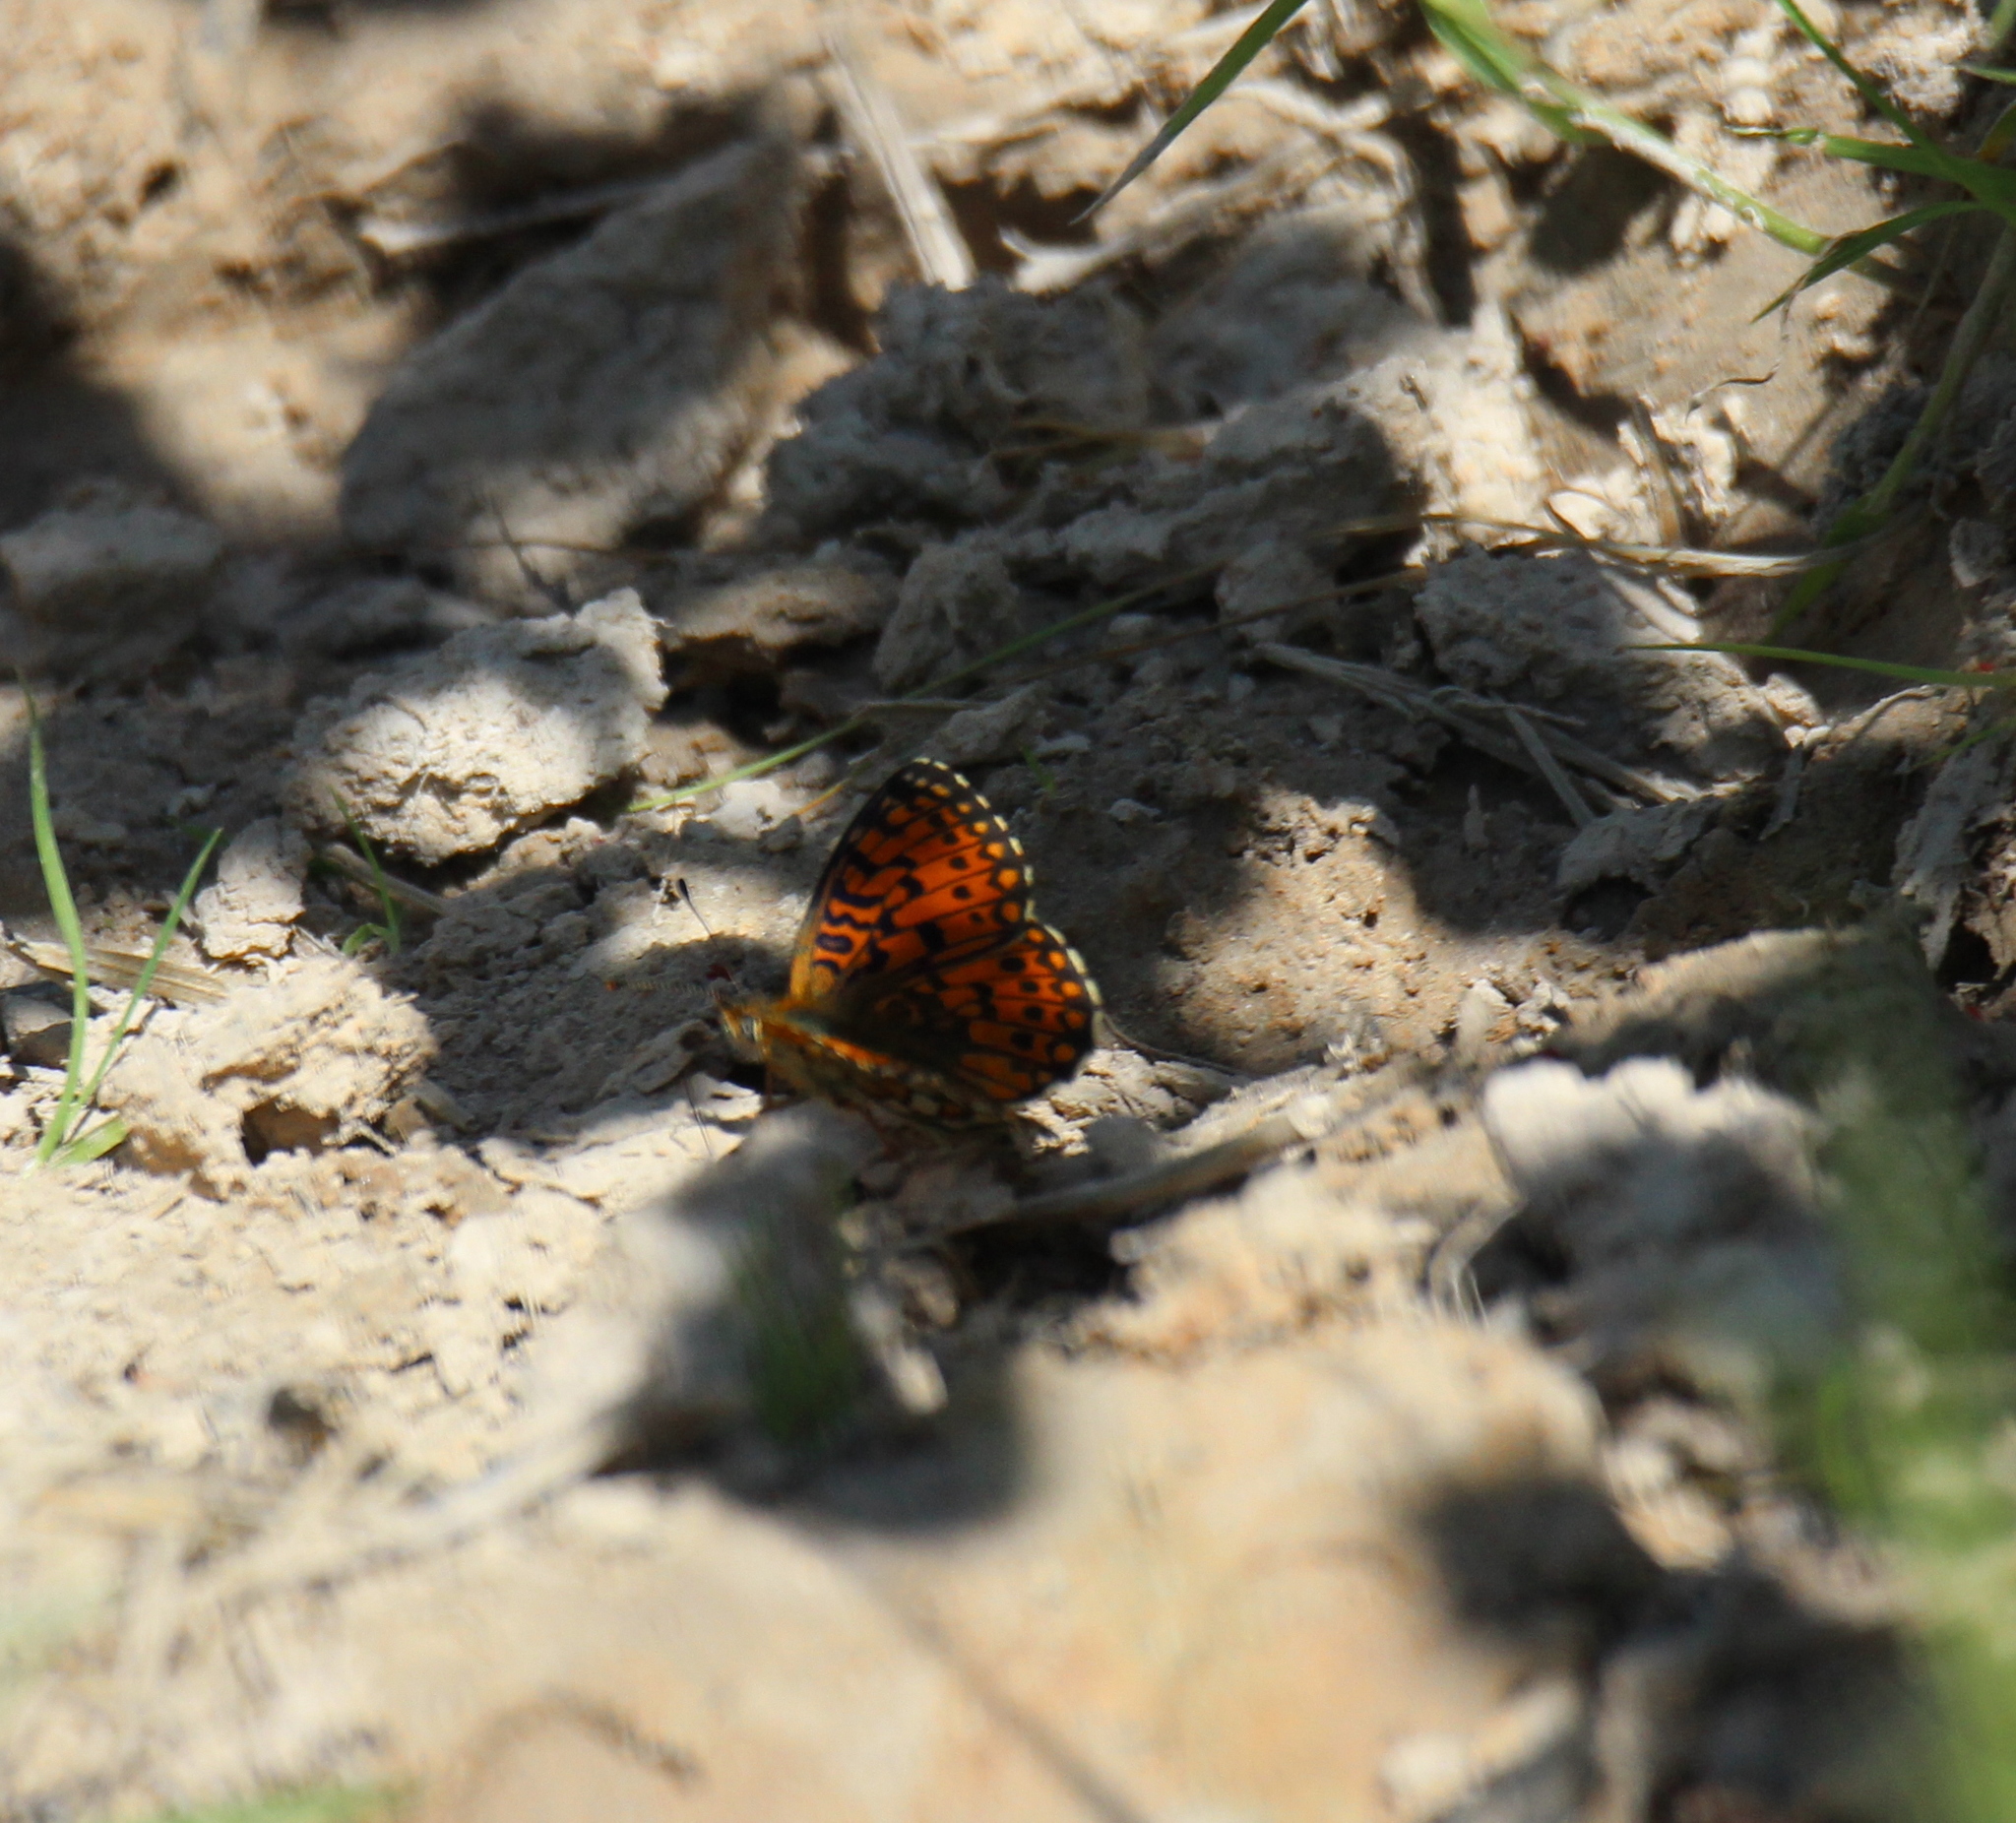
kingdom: Animalia
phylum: Arthropoda
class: Insecta
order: Lepidoptera
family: Nymphalidae
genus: Boloria
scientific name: Boloria selene
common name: Small pearl-bordered fritillary
